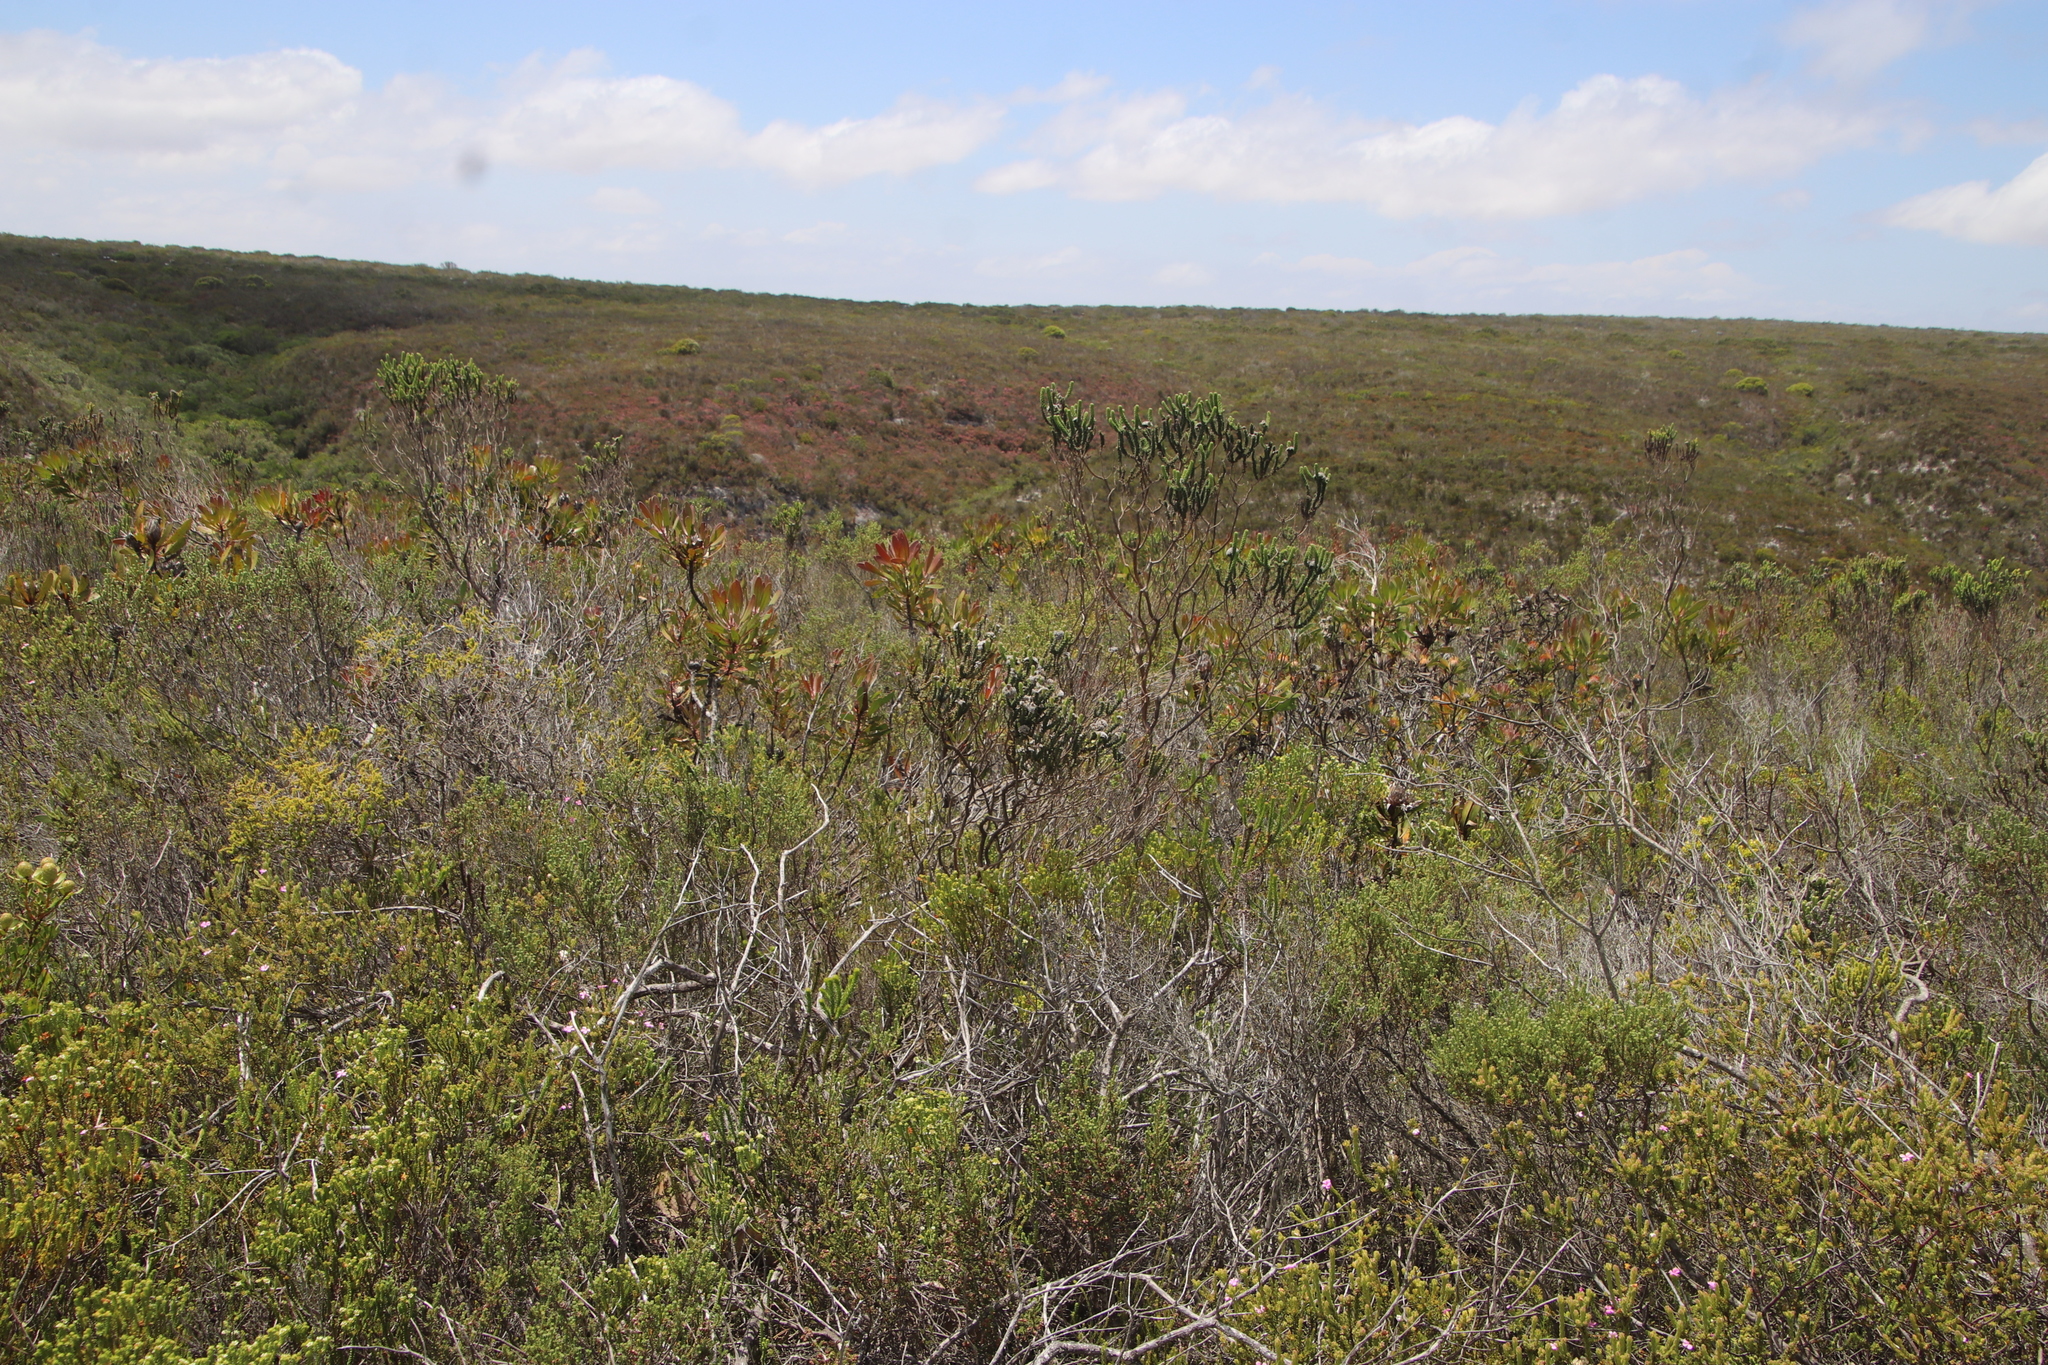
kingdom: Plantae
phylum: Tracheophyta
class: Magnoliopsida
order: Asterales
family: Asteraceae
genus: Metalasia
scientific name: Metalasia calcicola
